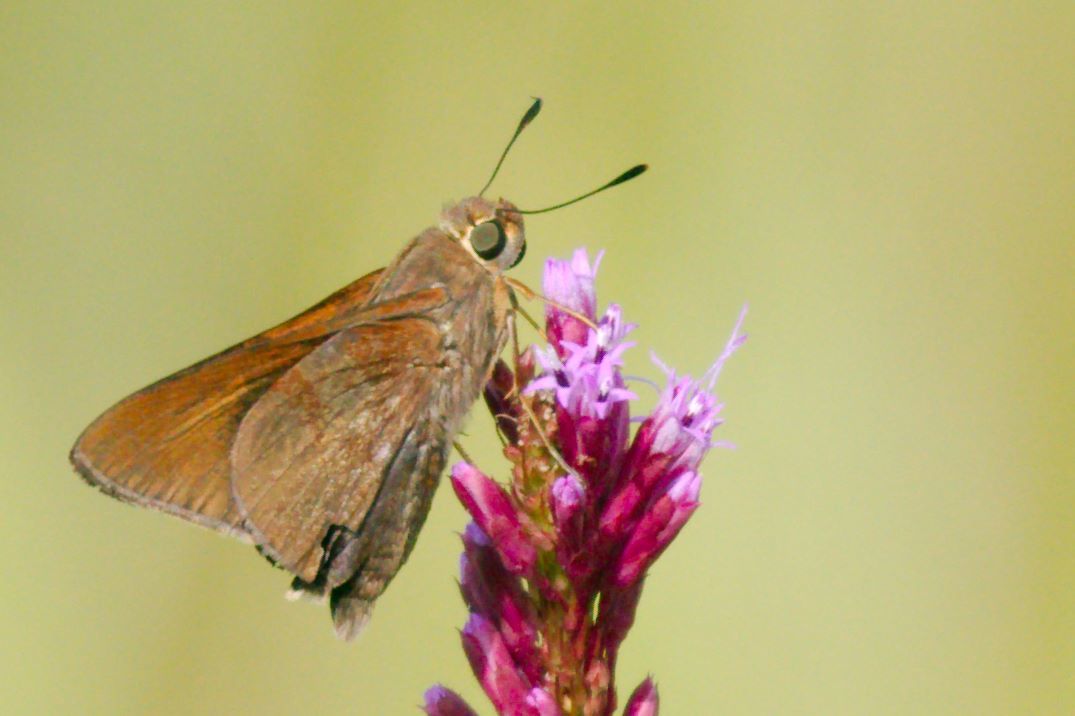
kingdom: Animalia
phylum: Arthropoda
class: Insecta
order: Lepidoptera
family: Hesperiidae
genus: Asbolis
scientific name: Asbolis capucinus
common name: Monk skipper
